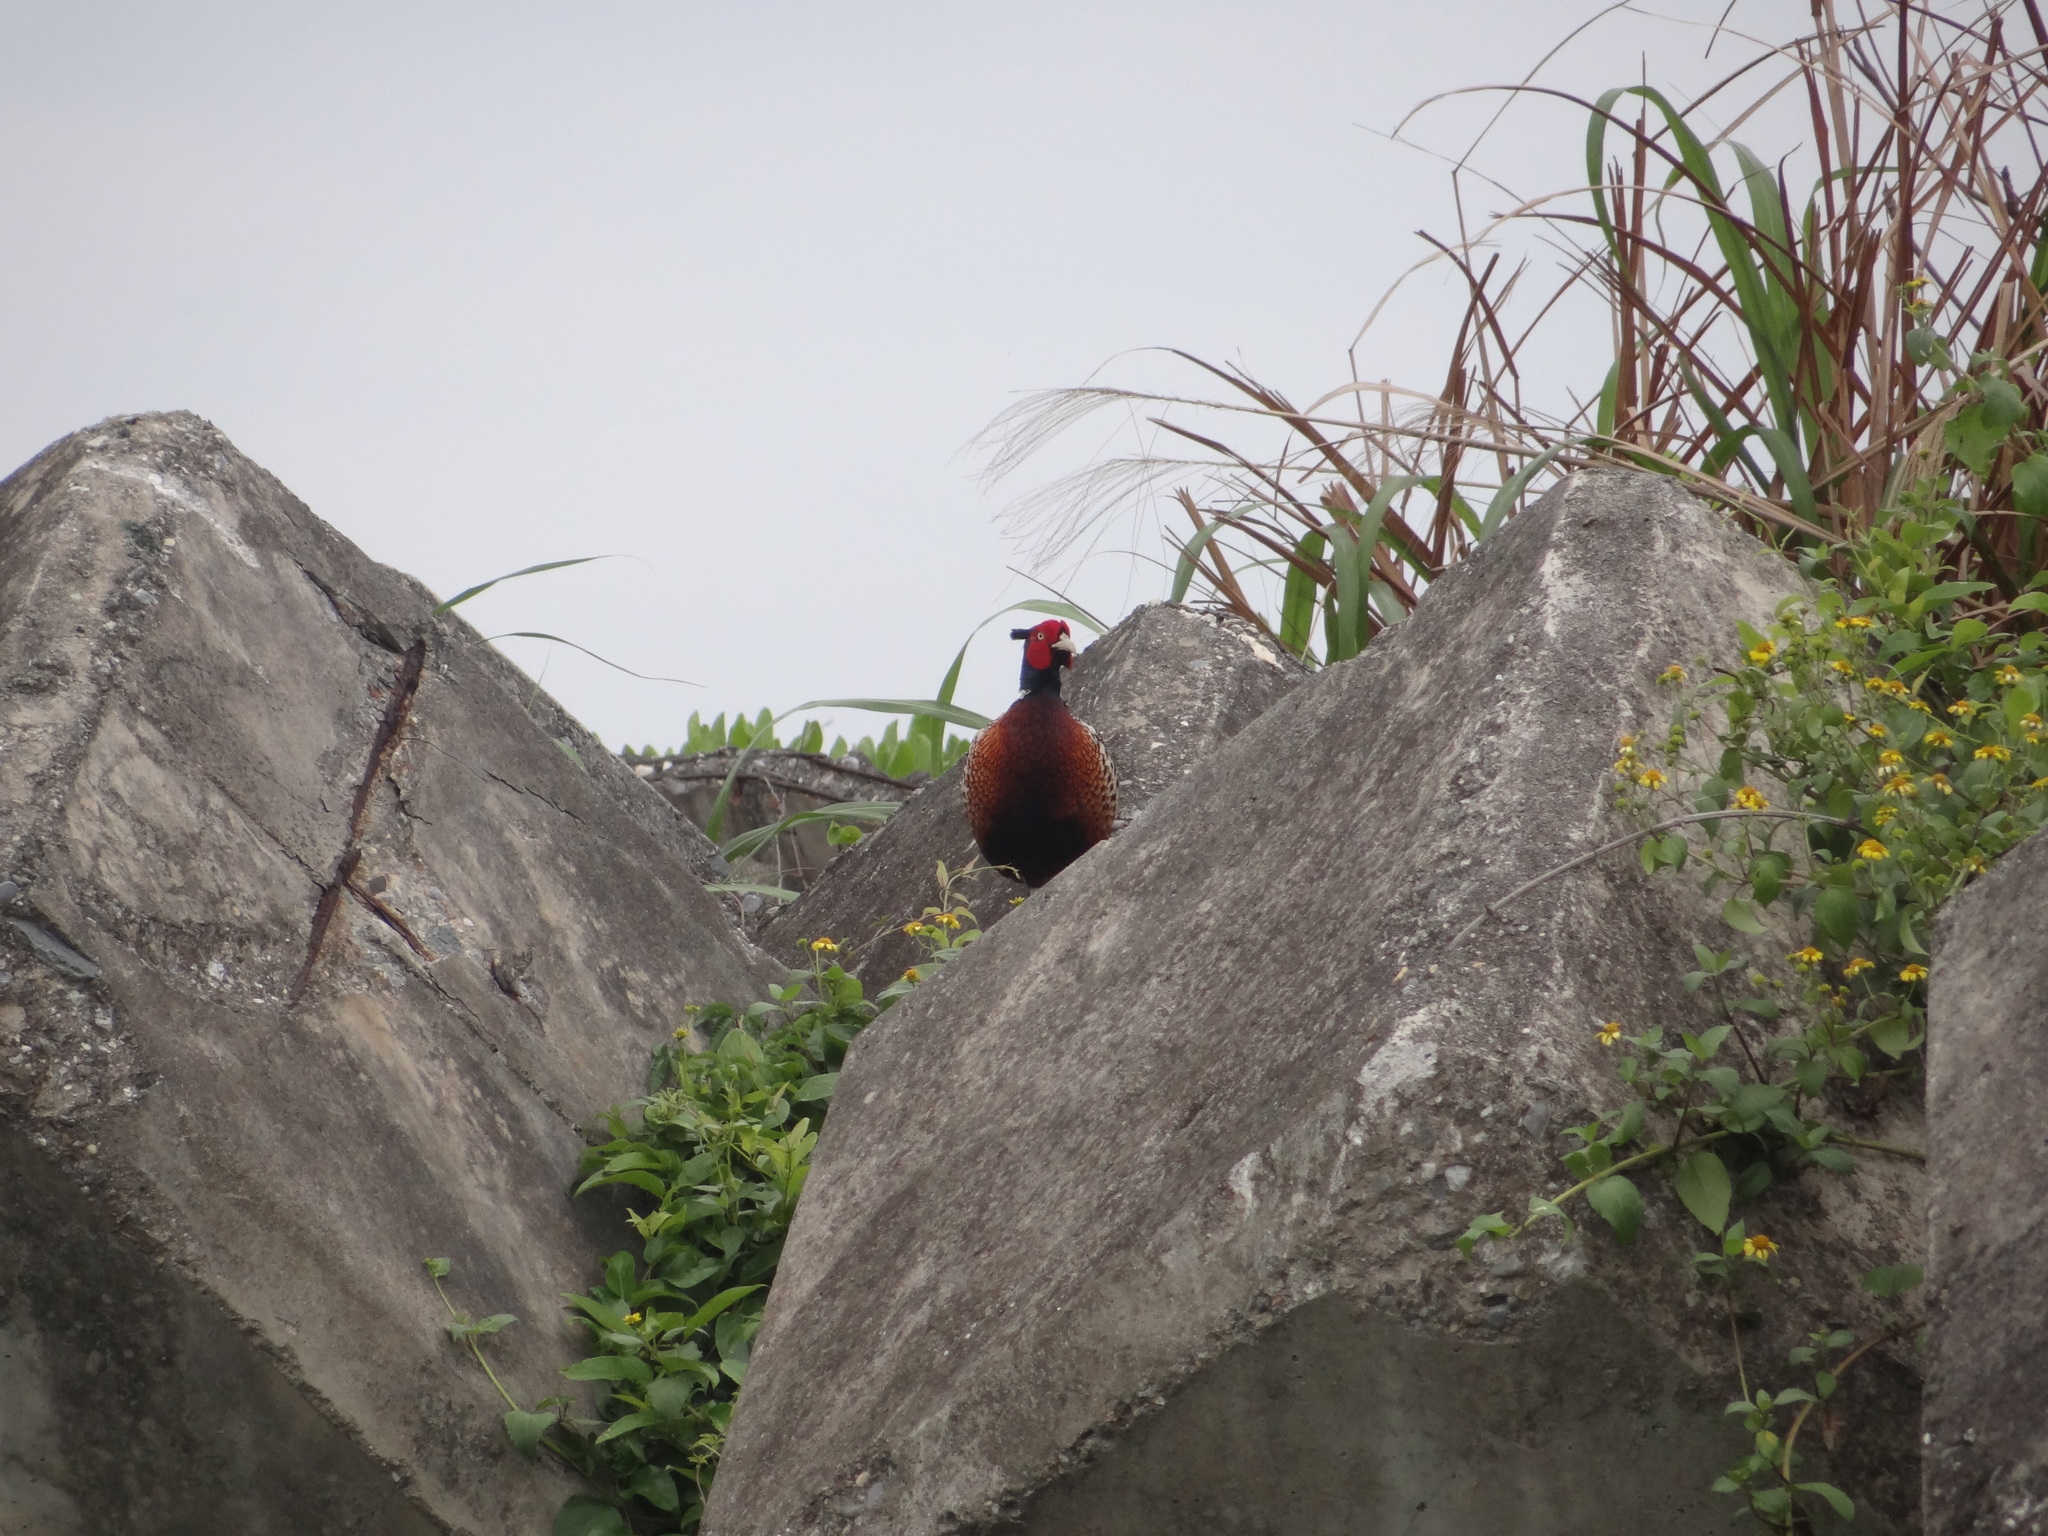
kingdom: Animalia
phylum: Chordata
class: Aves
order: Galliformes
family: Phasianidae
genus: Phasianus
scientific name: Phasianus colchicus
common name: Common pheasant
